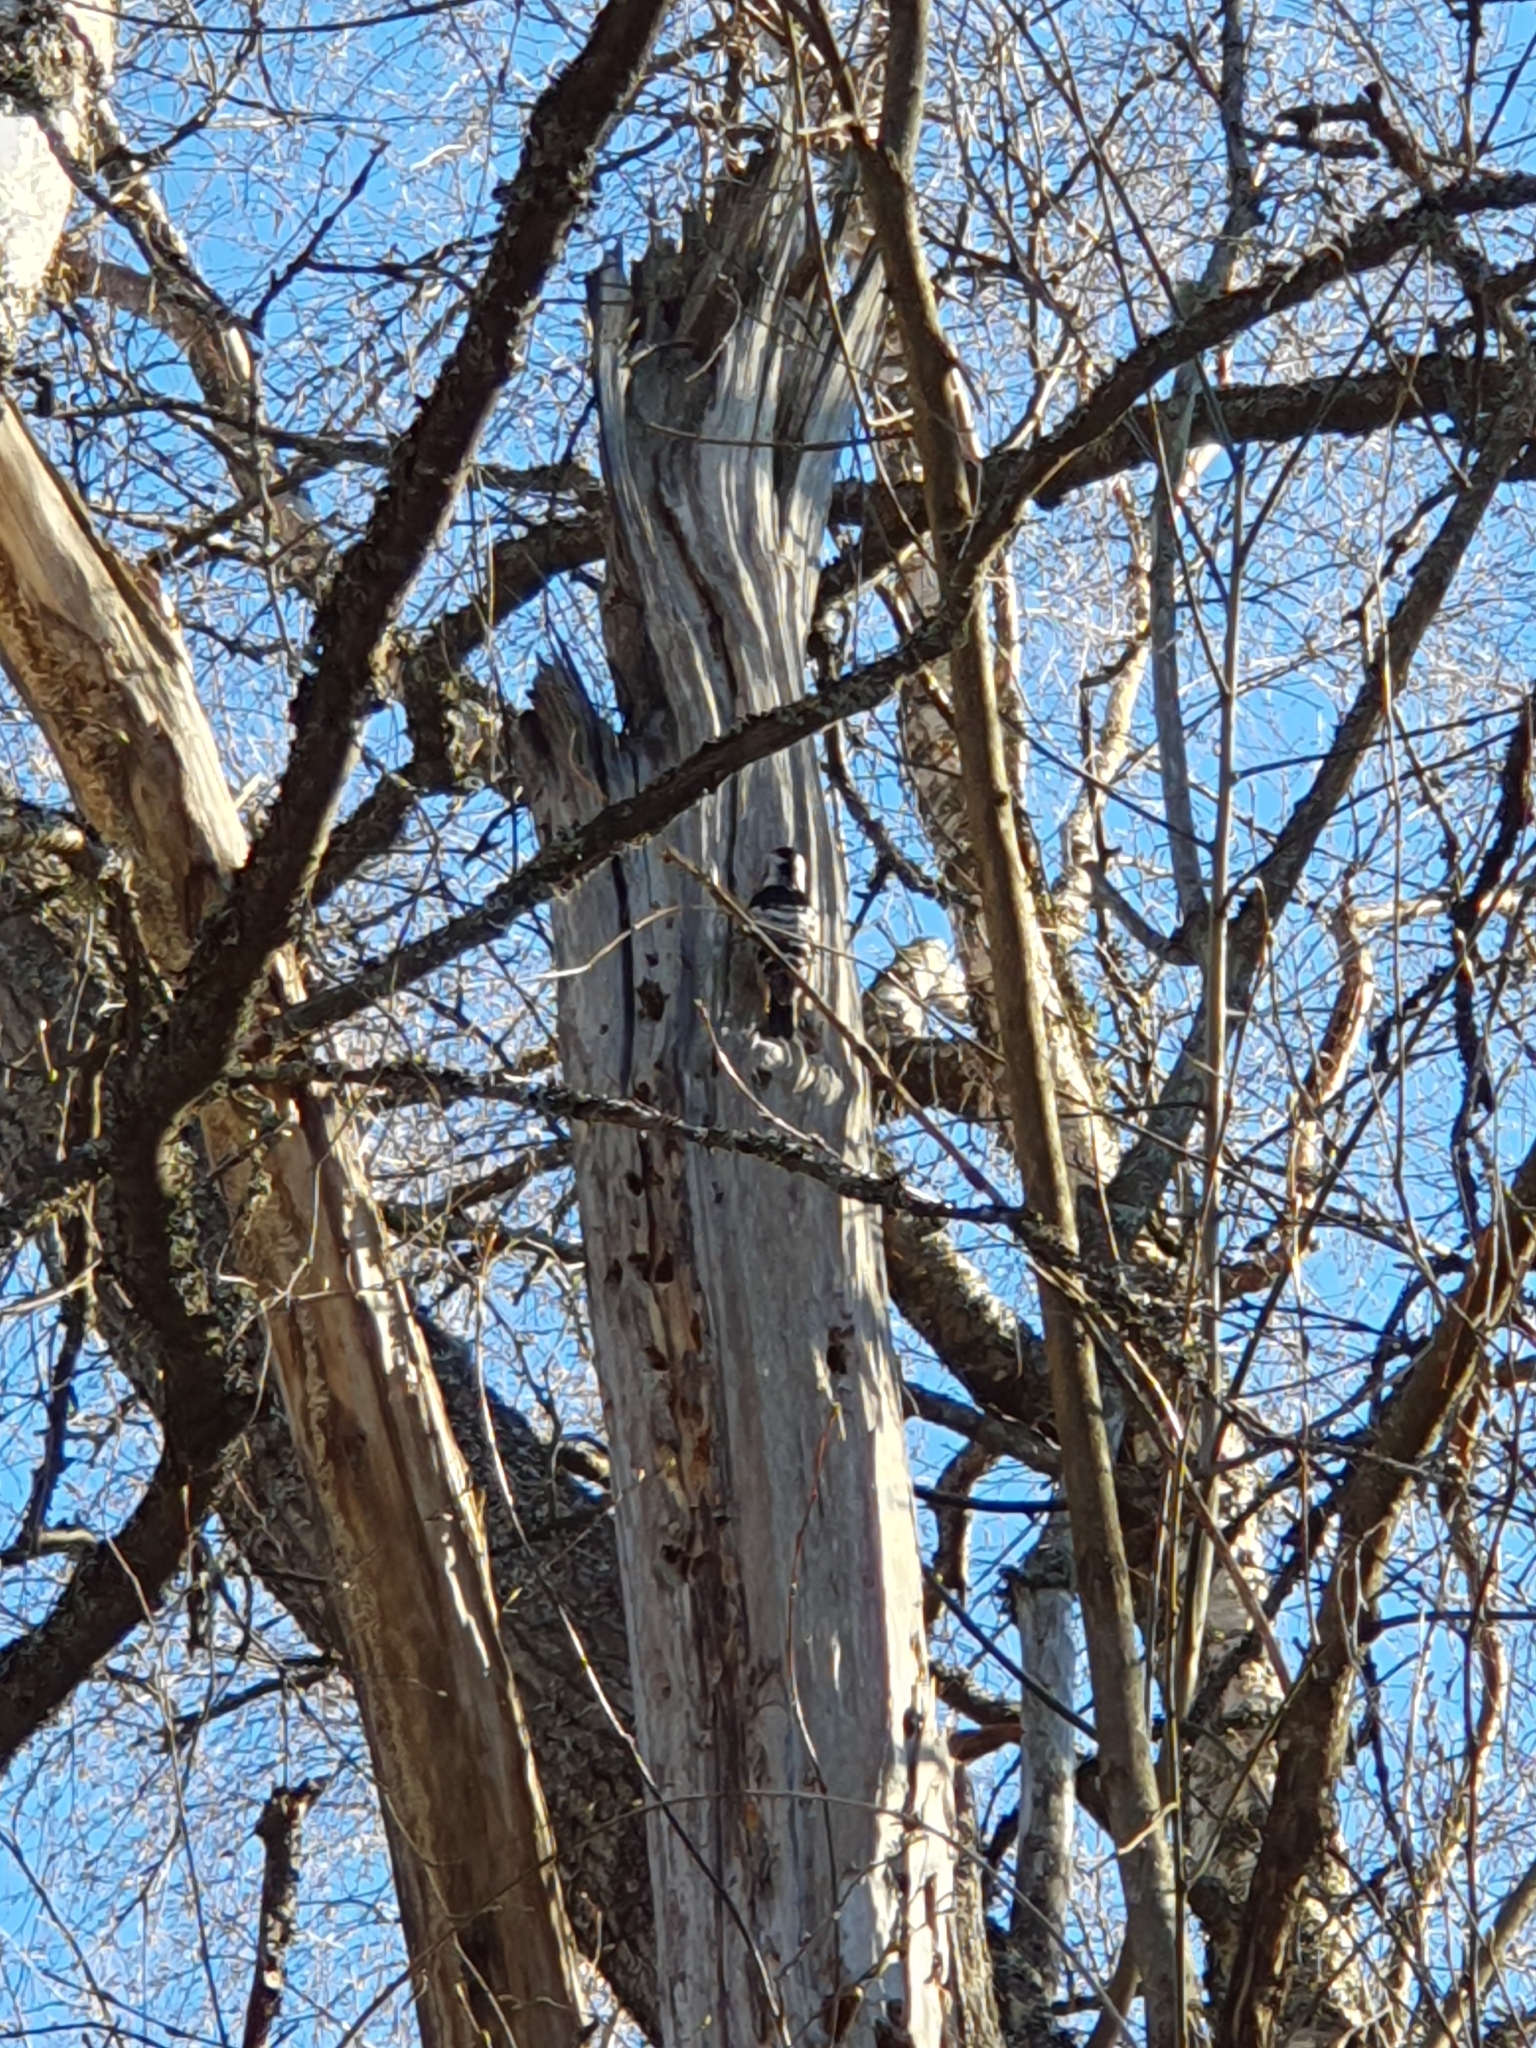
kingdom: Animalia
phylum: Chordata
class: Aves
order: Piciformes
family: Picidae
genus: Dryobates
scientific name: Dryobates minor
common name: Lesser spotted woodpecker
